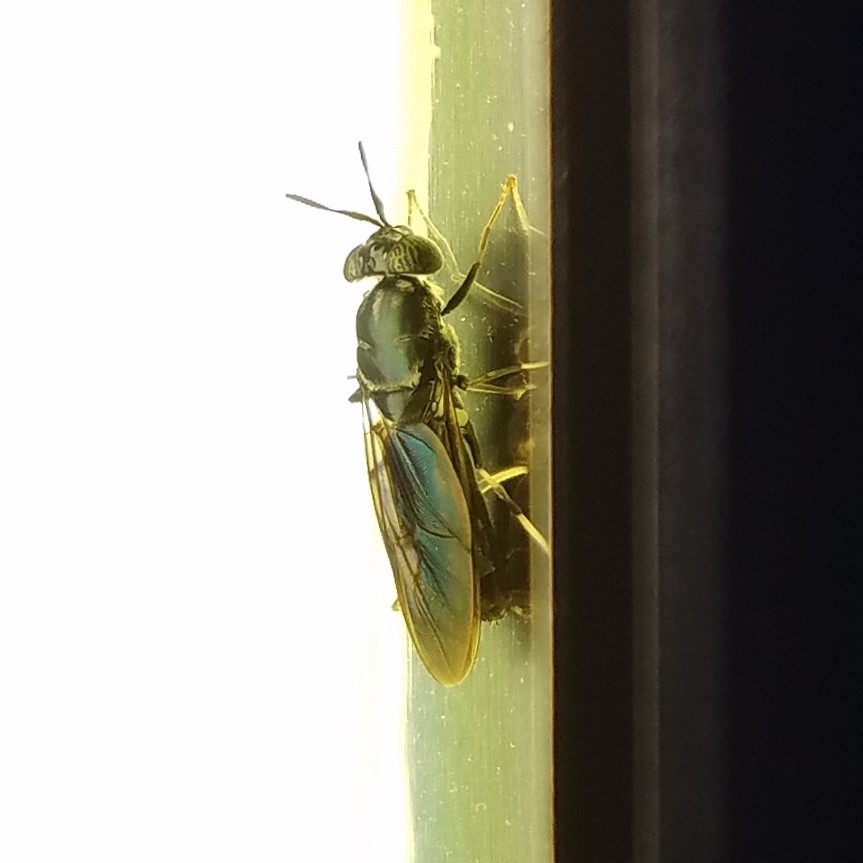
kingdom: Animalia
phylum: Arthropoda
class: Insecta
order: Diptera
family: Stratiomyidae
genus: Hermetia
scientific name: Hermetia illucens
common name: Black soldier fly
